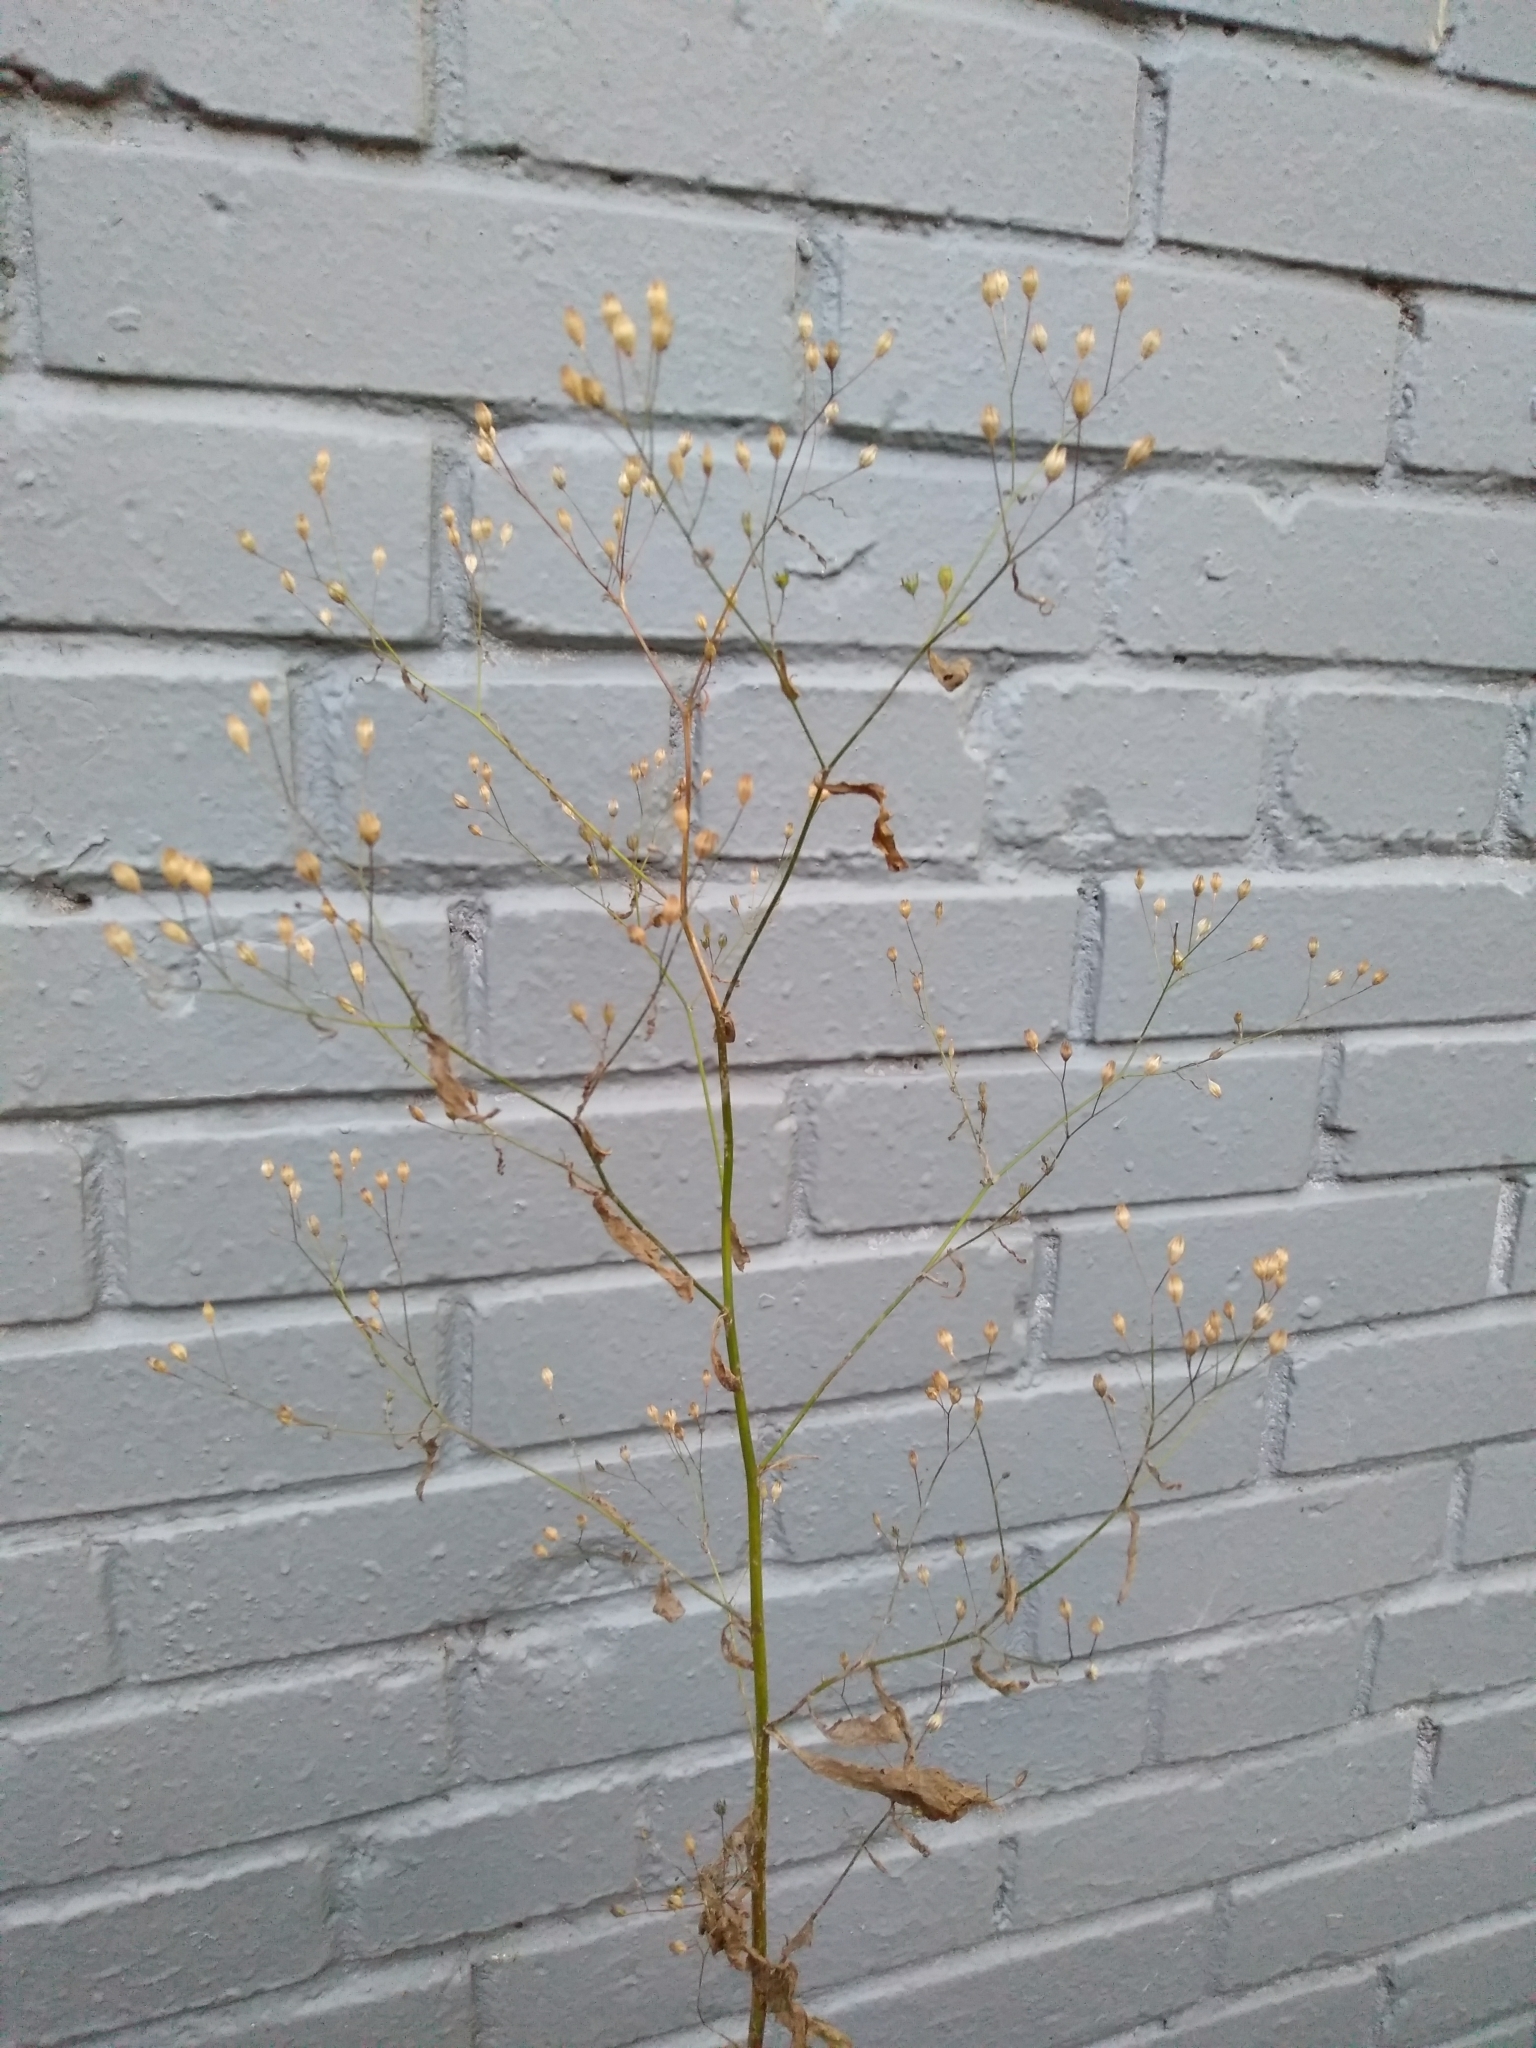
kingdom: Plantae
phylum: Tracheophyta
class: Magnoliopsida
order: Asterales
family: Asteraceae
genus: Lapsana
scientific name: Lapsana communis
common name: Nipplewort
